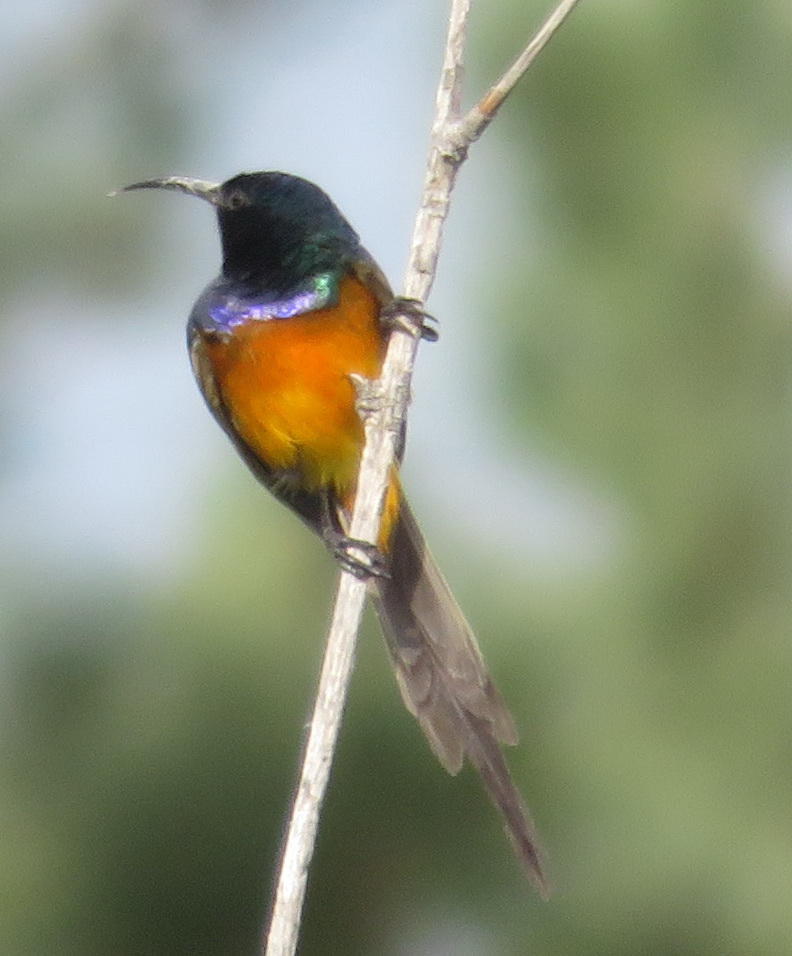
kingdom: Animalia
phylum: Chordata
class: Aves
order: Passeriformes
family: Nectariniidae
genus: Anthobaphes
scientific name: Anthobaphes violacea
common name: Orange-breasted sunbird
